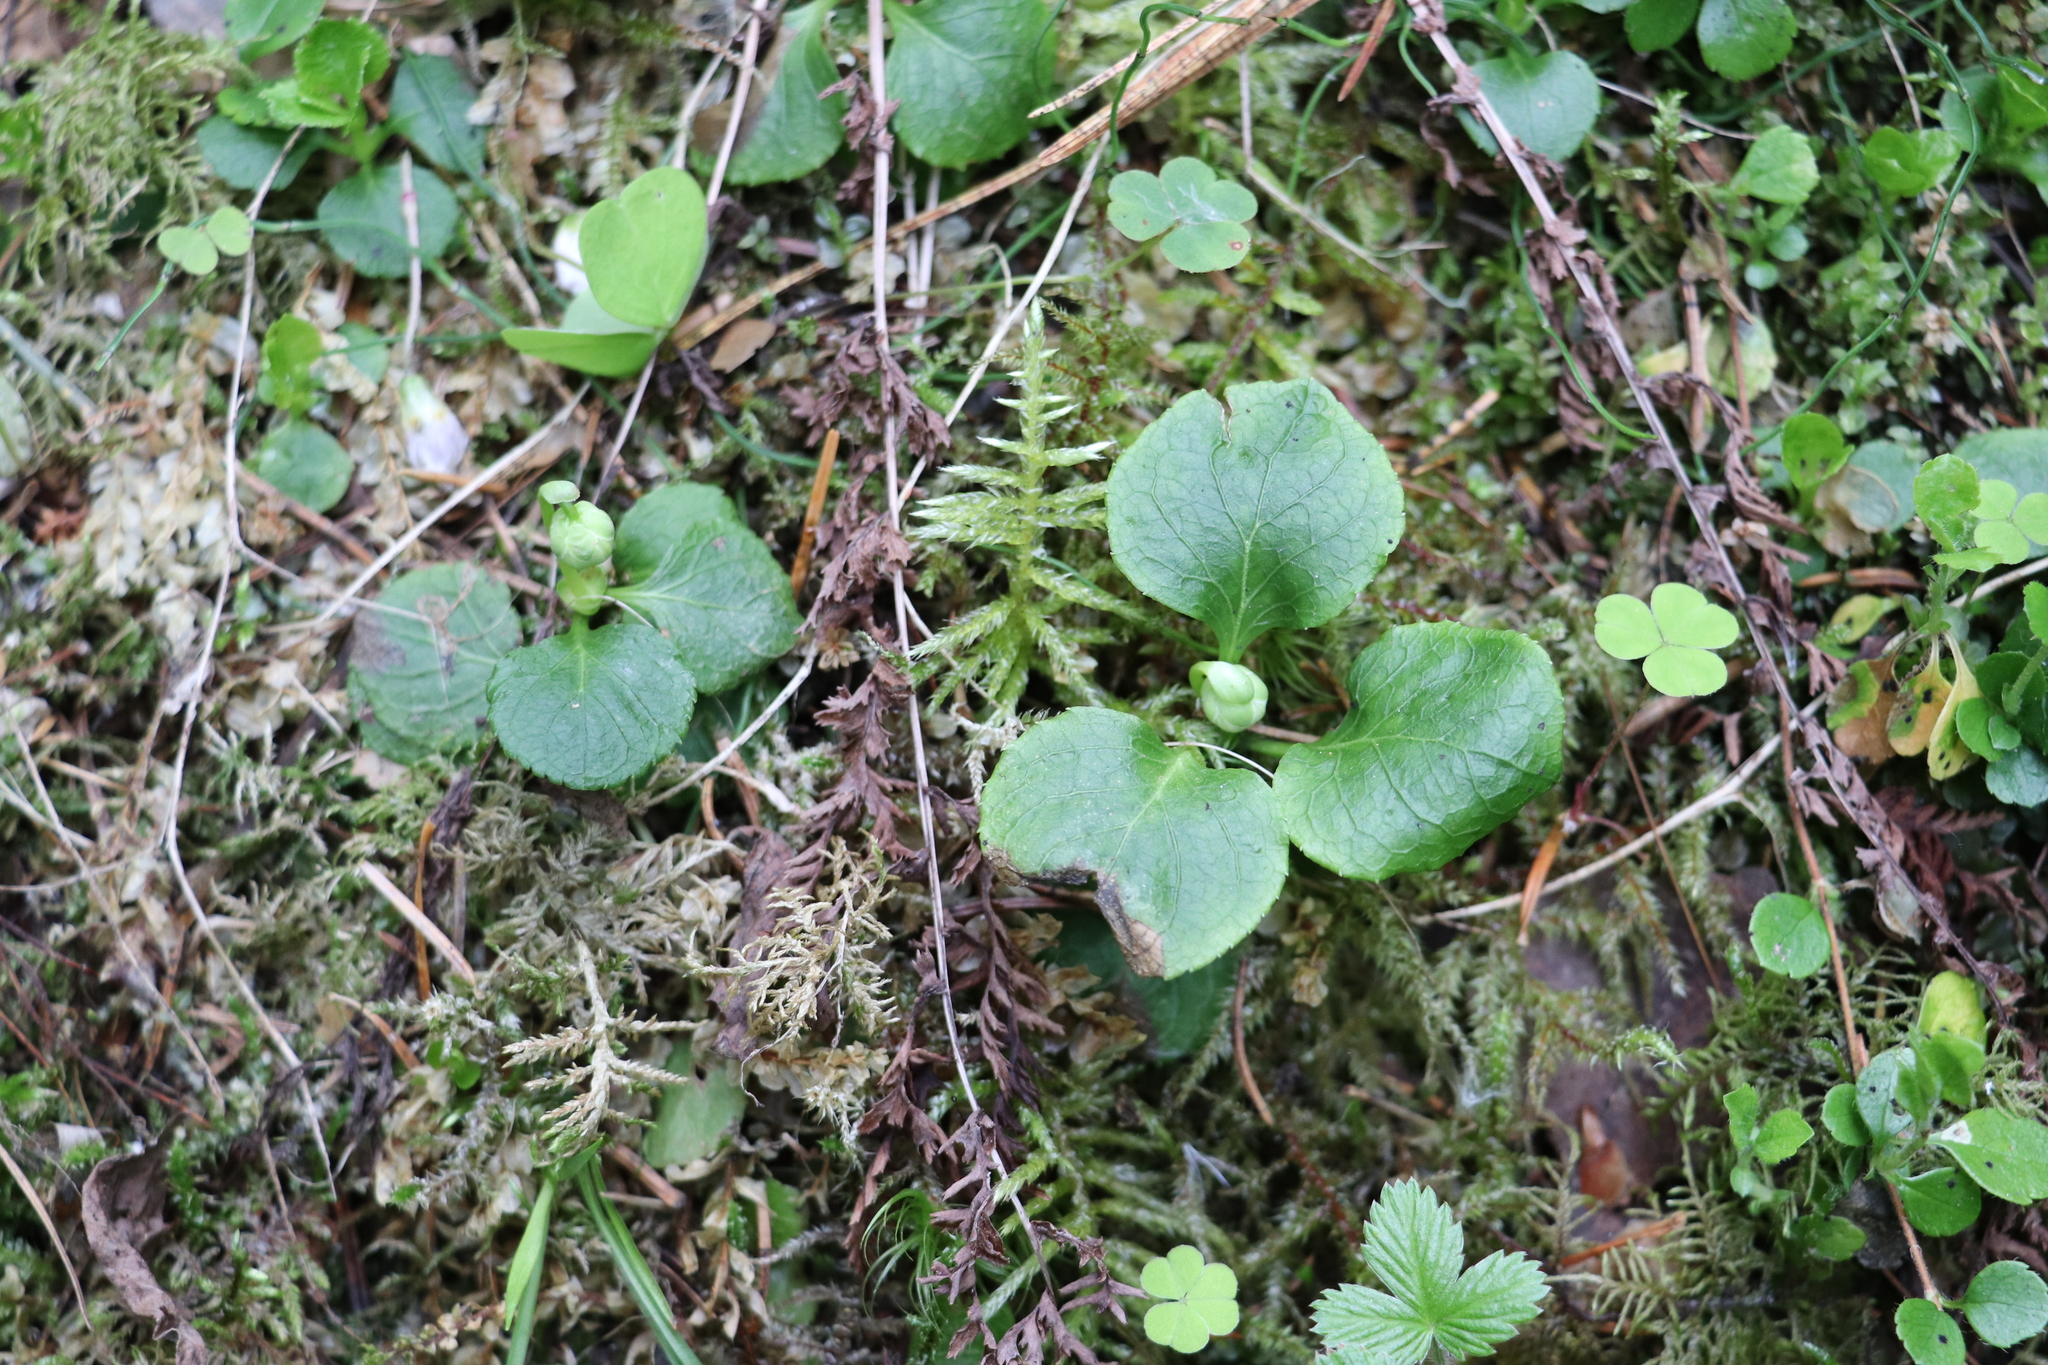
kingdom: Plantae
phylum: Tracheophyta
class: Magnoliopsida
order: Ericales
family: Ericaceae
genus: Moneses
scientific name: Moneses uniflora
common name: One-flowered wintergreen
